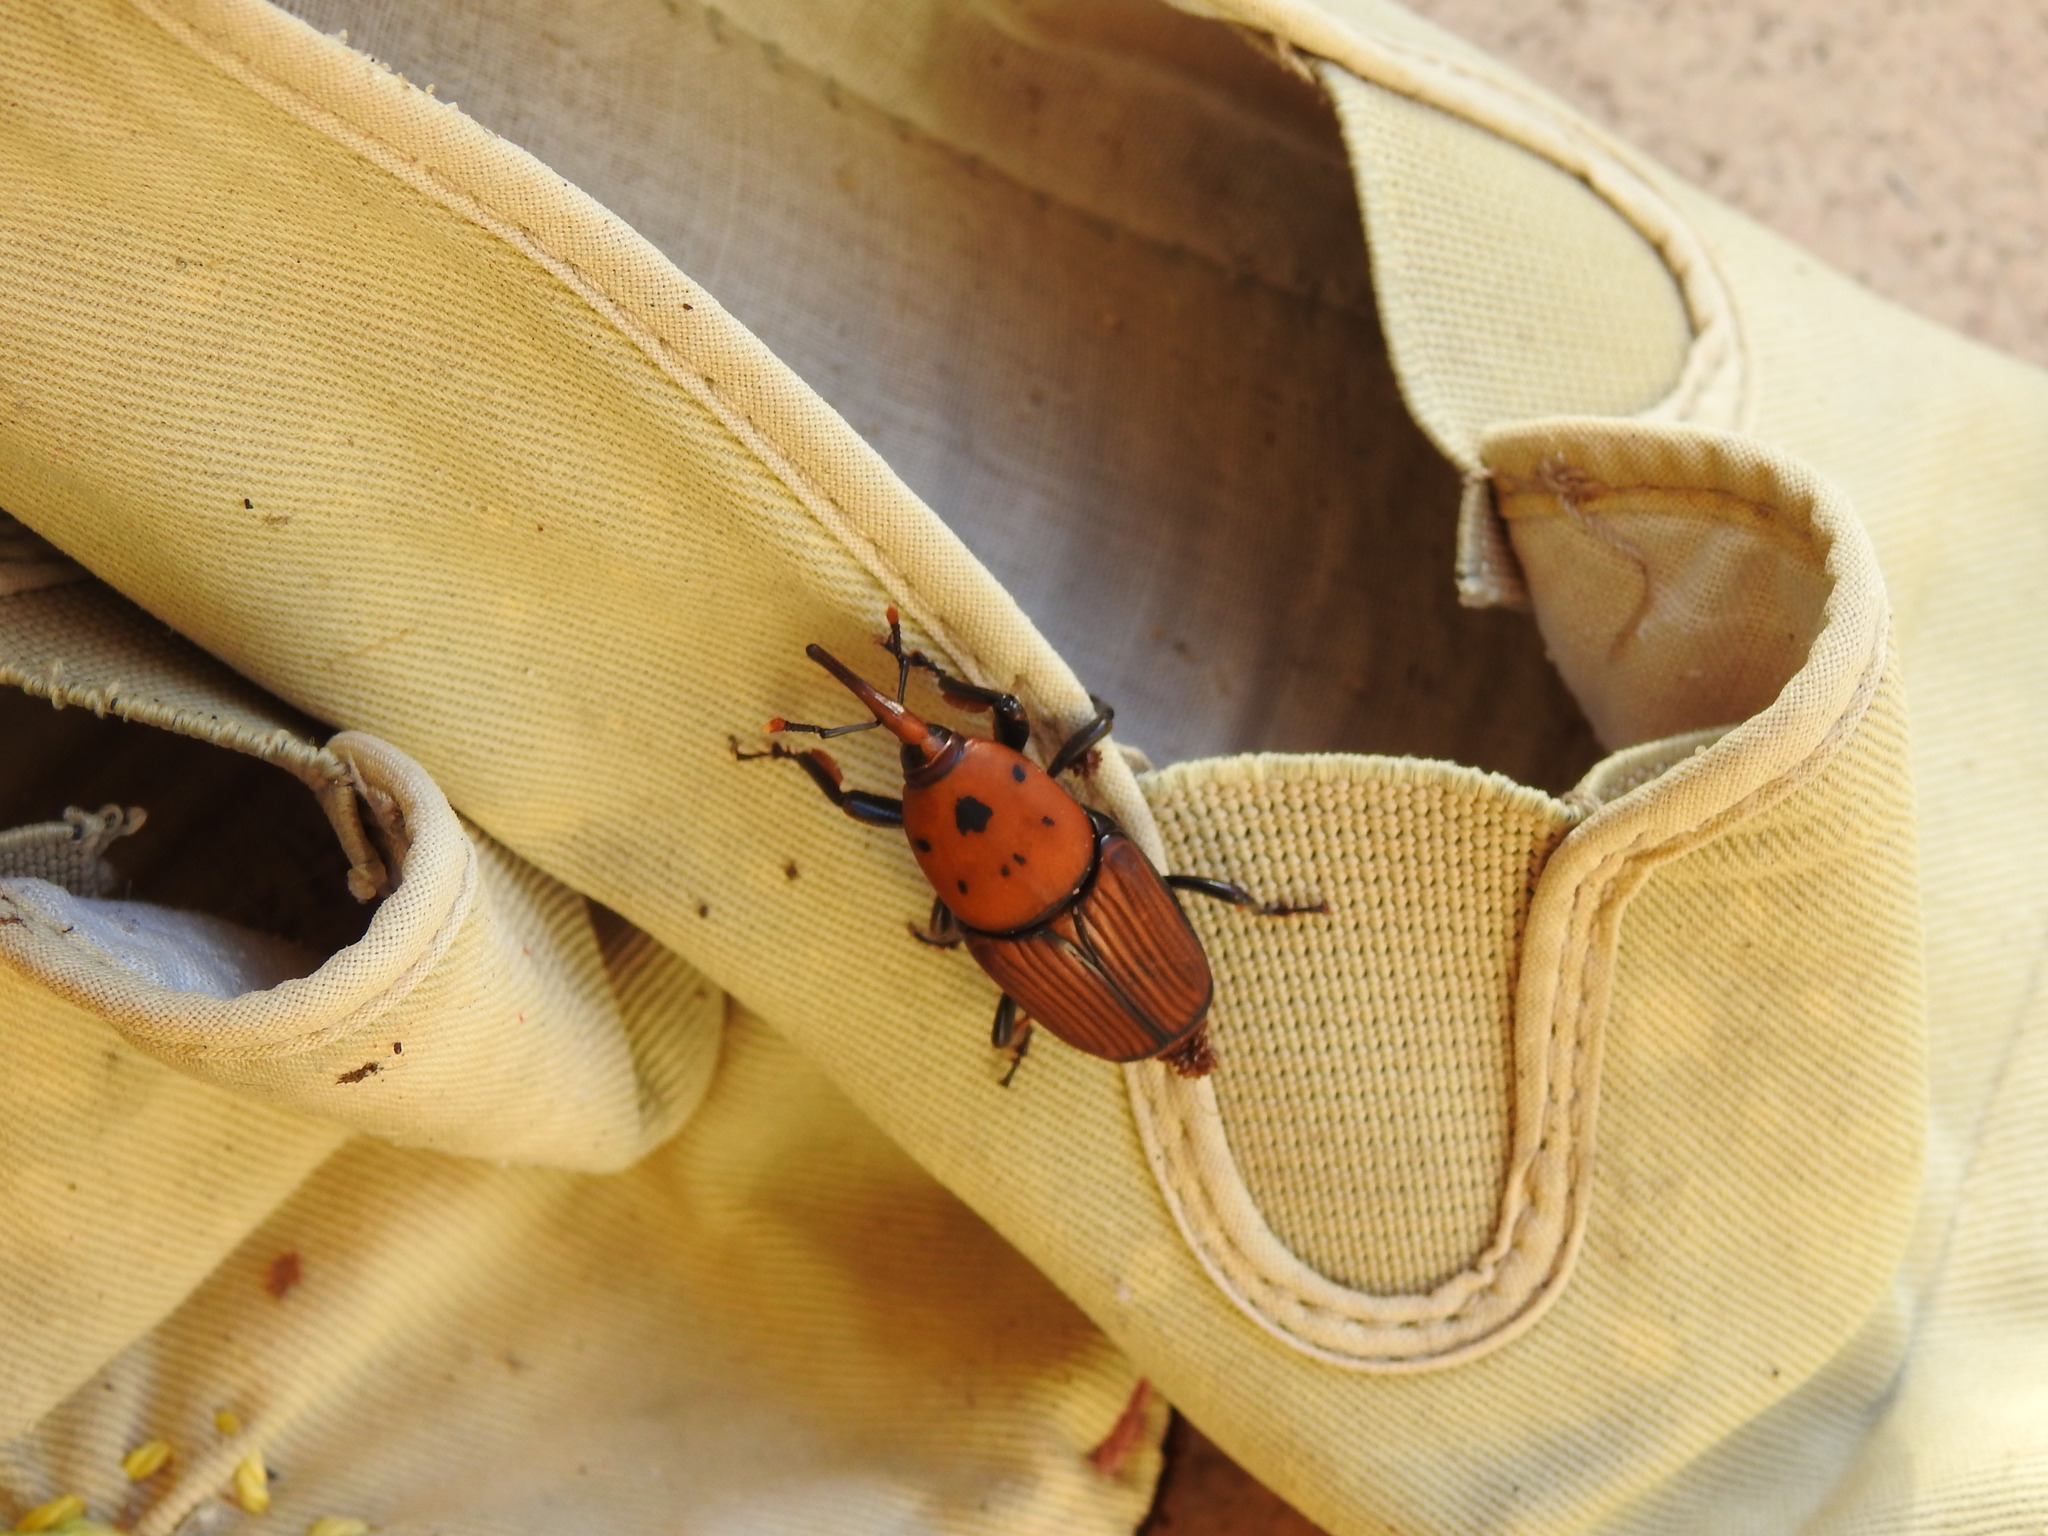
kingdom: Animalia
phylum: Arthropoda
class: Insecta
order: Coleoptera
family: Dryophthoridae
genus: Rhynchophorus
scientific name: Rhynchophorus ferrugineus
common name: Red palm weevil
